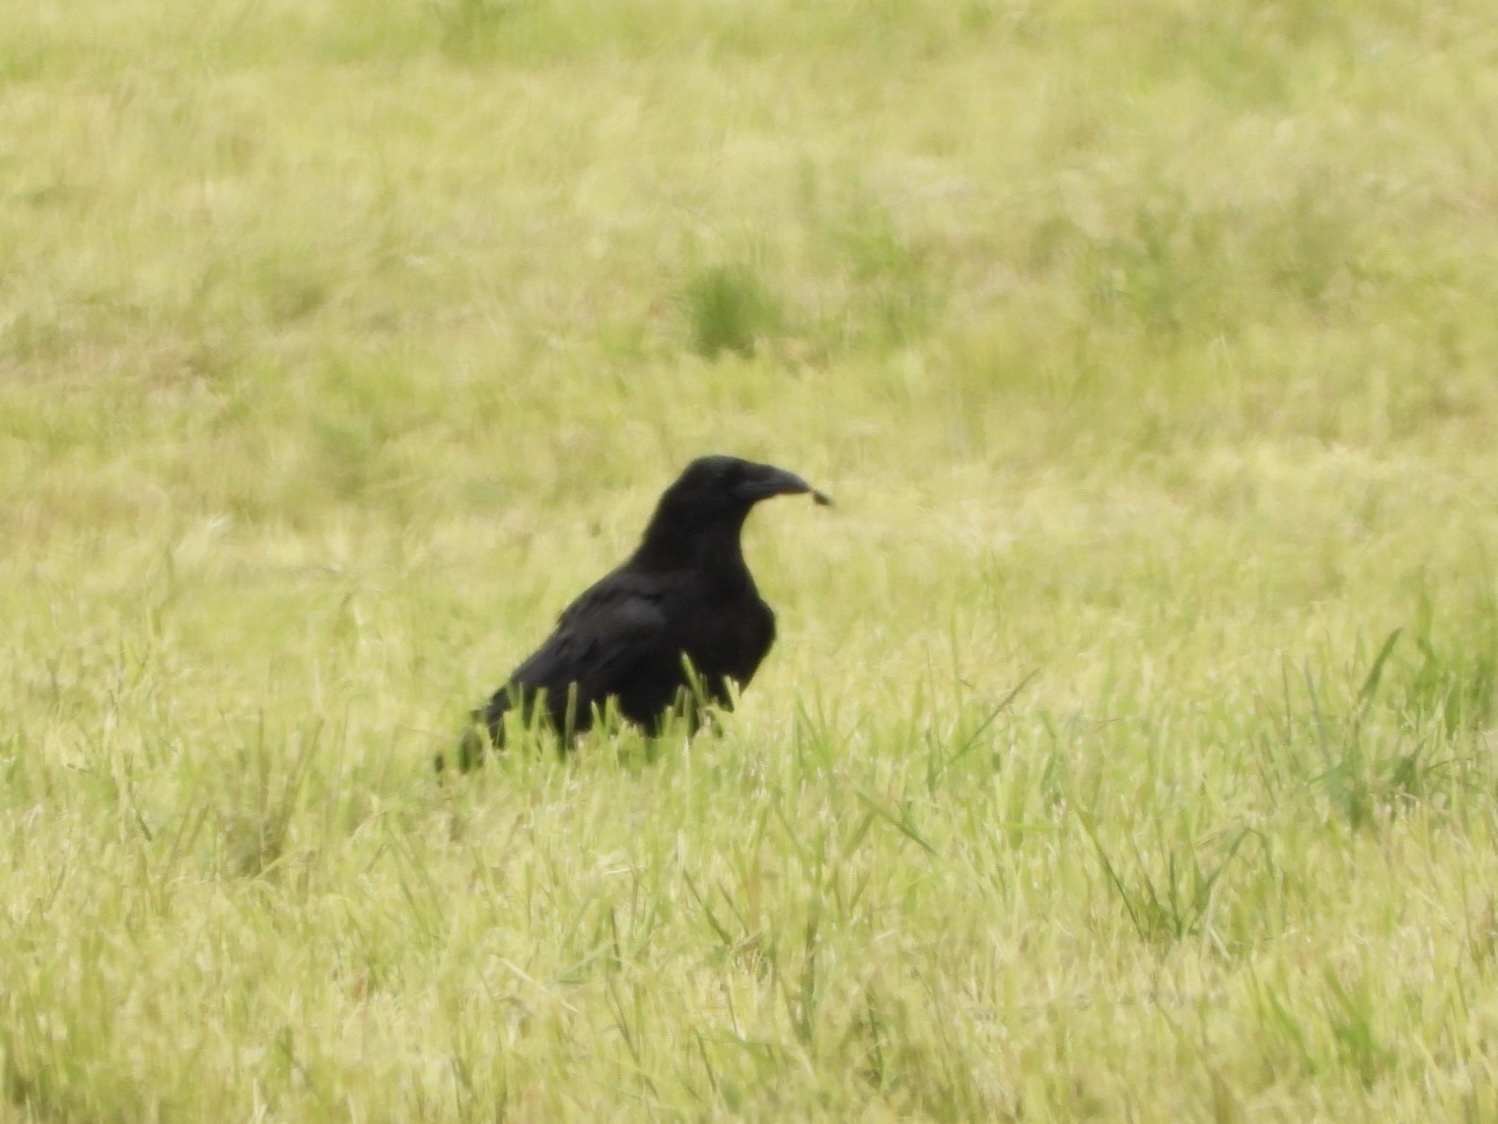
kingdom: Animalia
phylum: Chordata
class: Aves
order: Passeriformes
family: Corvidae
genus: Corvus
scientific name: Corvus corax
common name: Common raven
